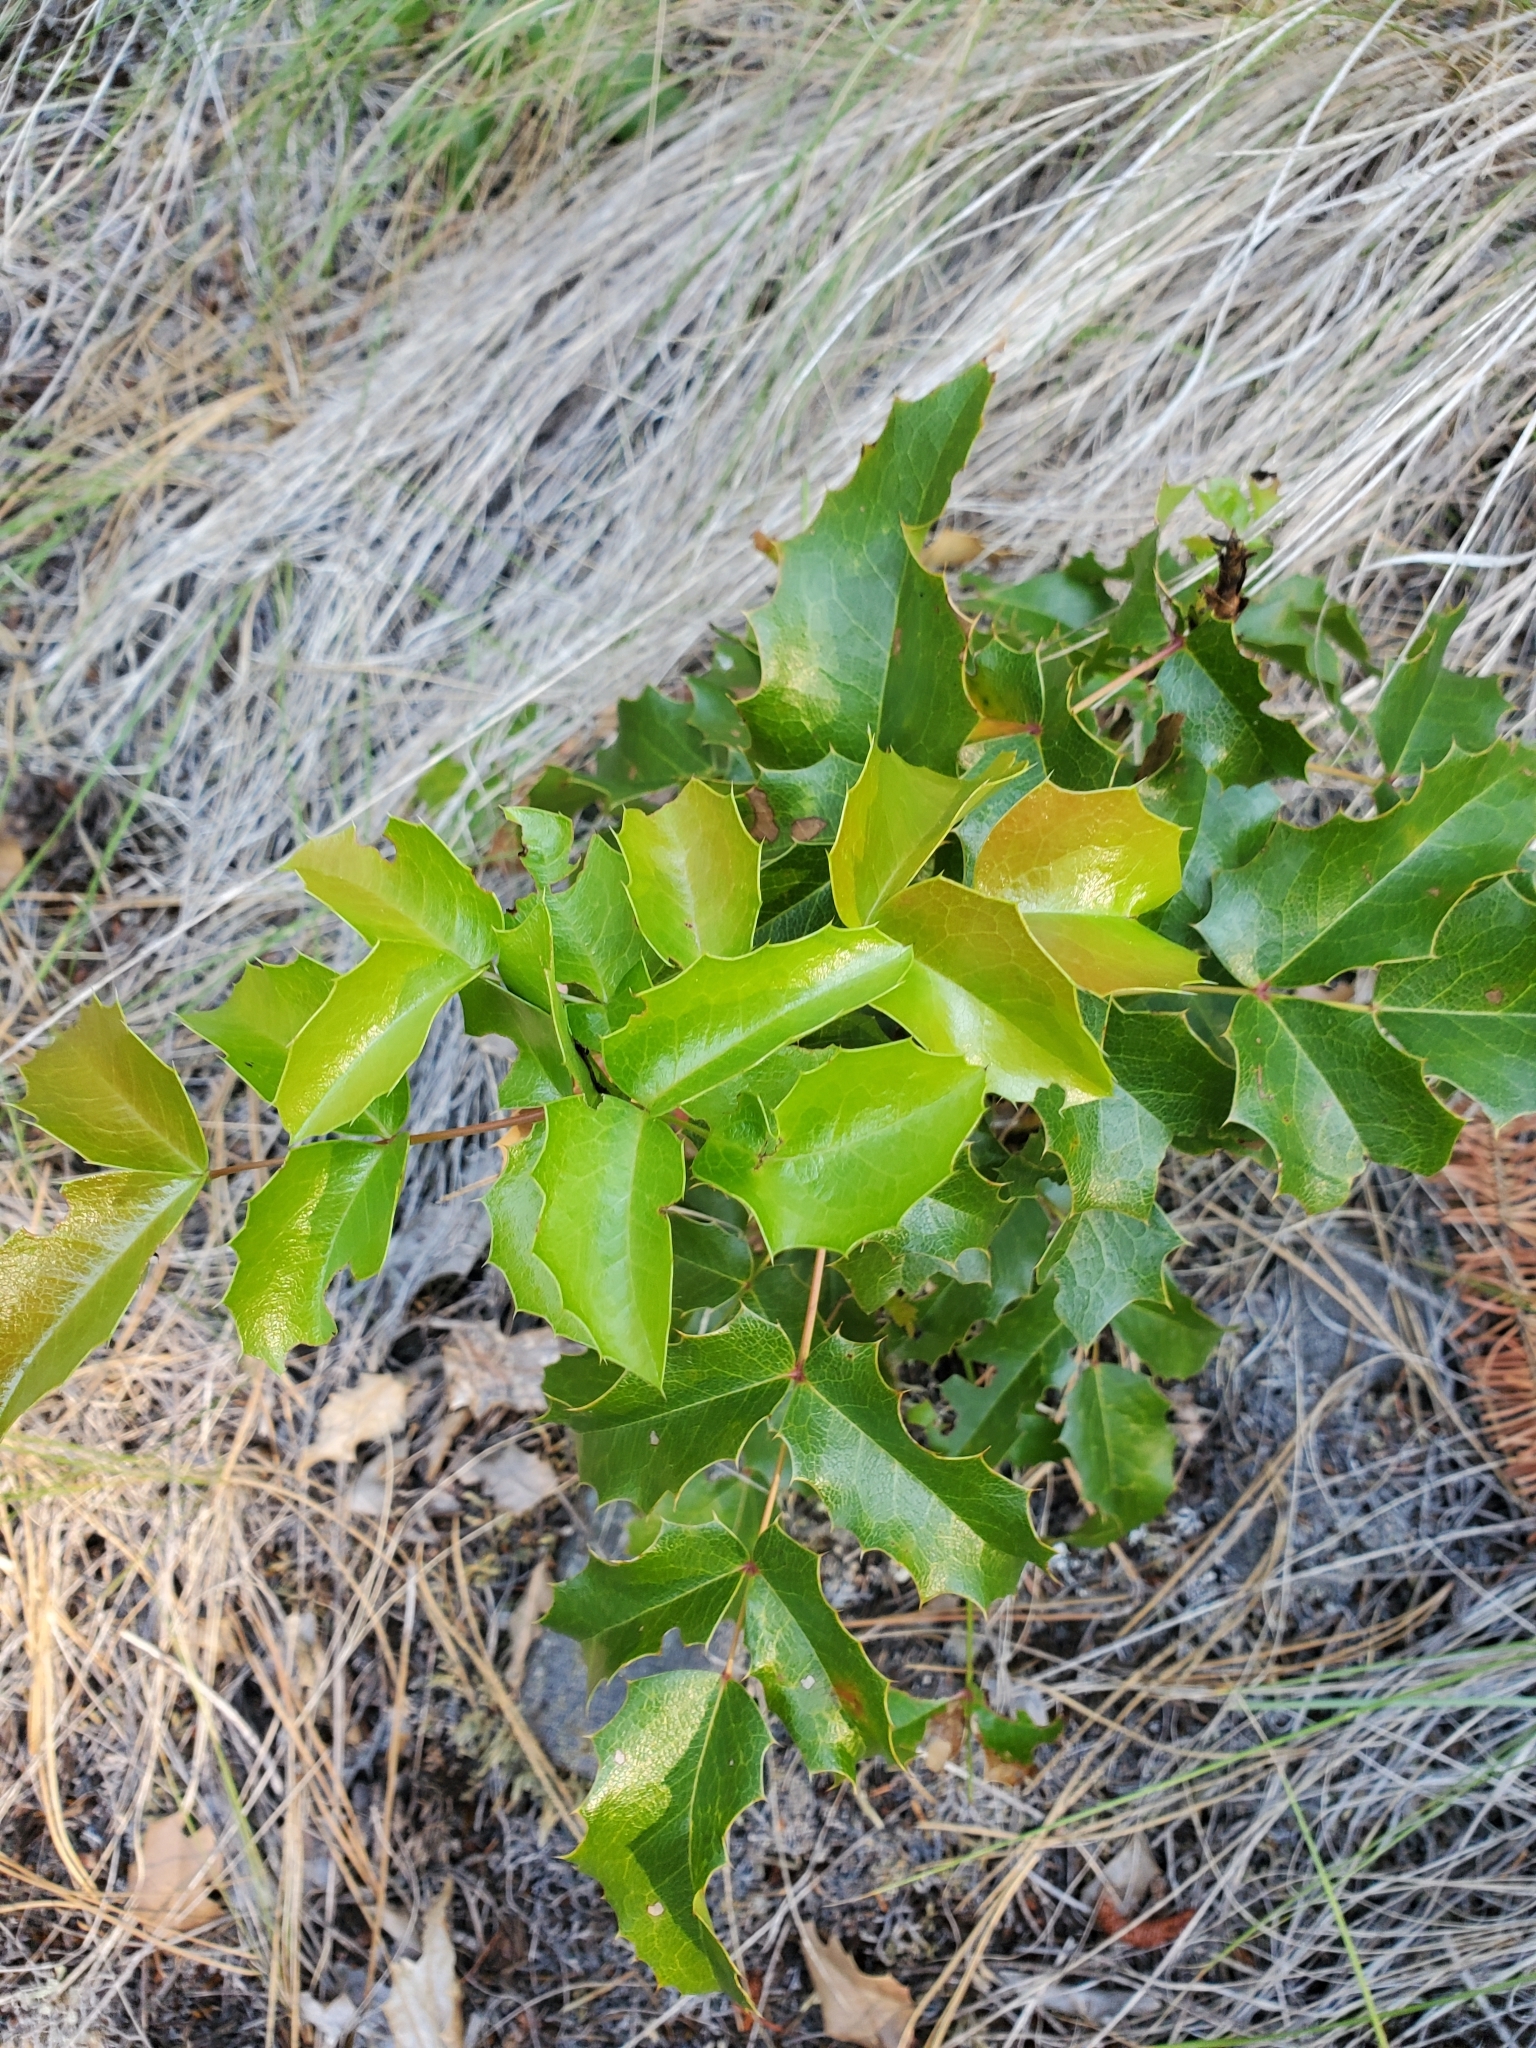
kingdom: Plantae
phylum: Tracheophyta
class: Magnoliopsida
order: Ranunculales
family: Berberidaceae
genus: Mahonia
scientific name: Mahonia aquifolium
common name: Oregon-grape
